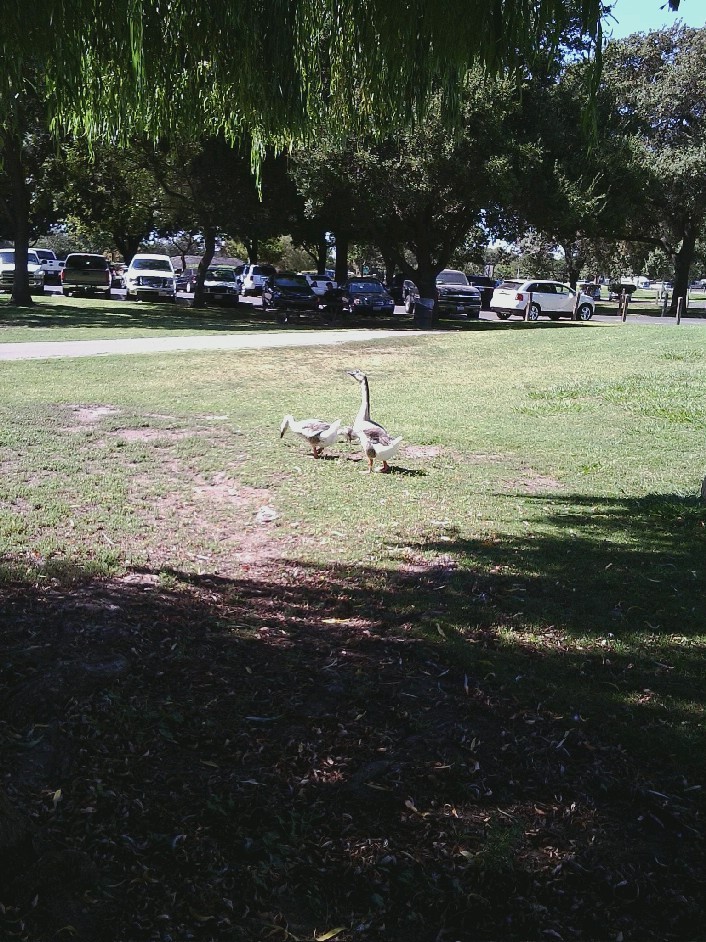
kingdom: Animalia
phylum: Chordata
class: Aves
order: Anseriformes
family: Anatidae
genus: Anser
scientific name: Anser cygnoides
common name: Swan goose
